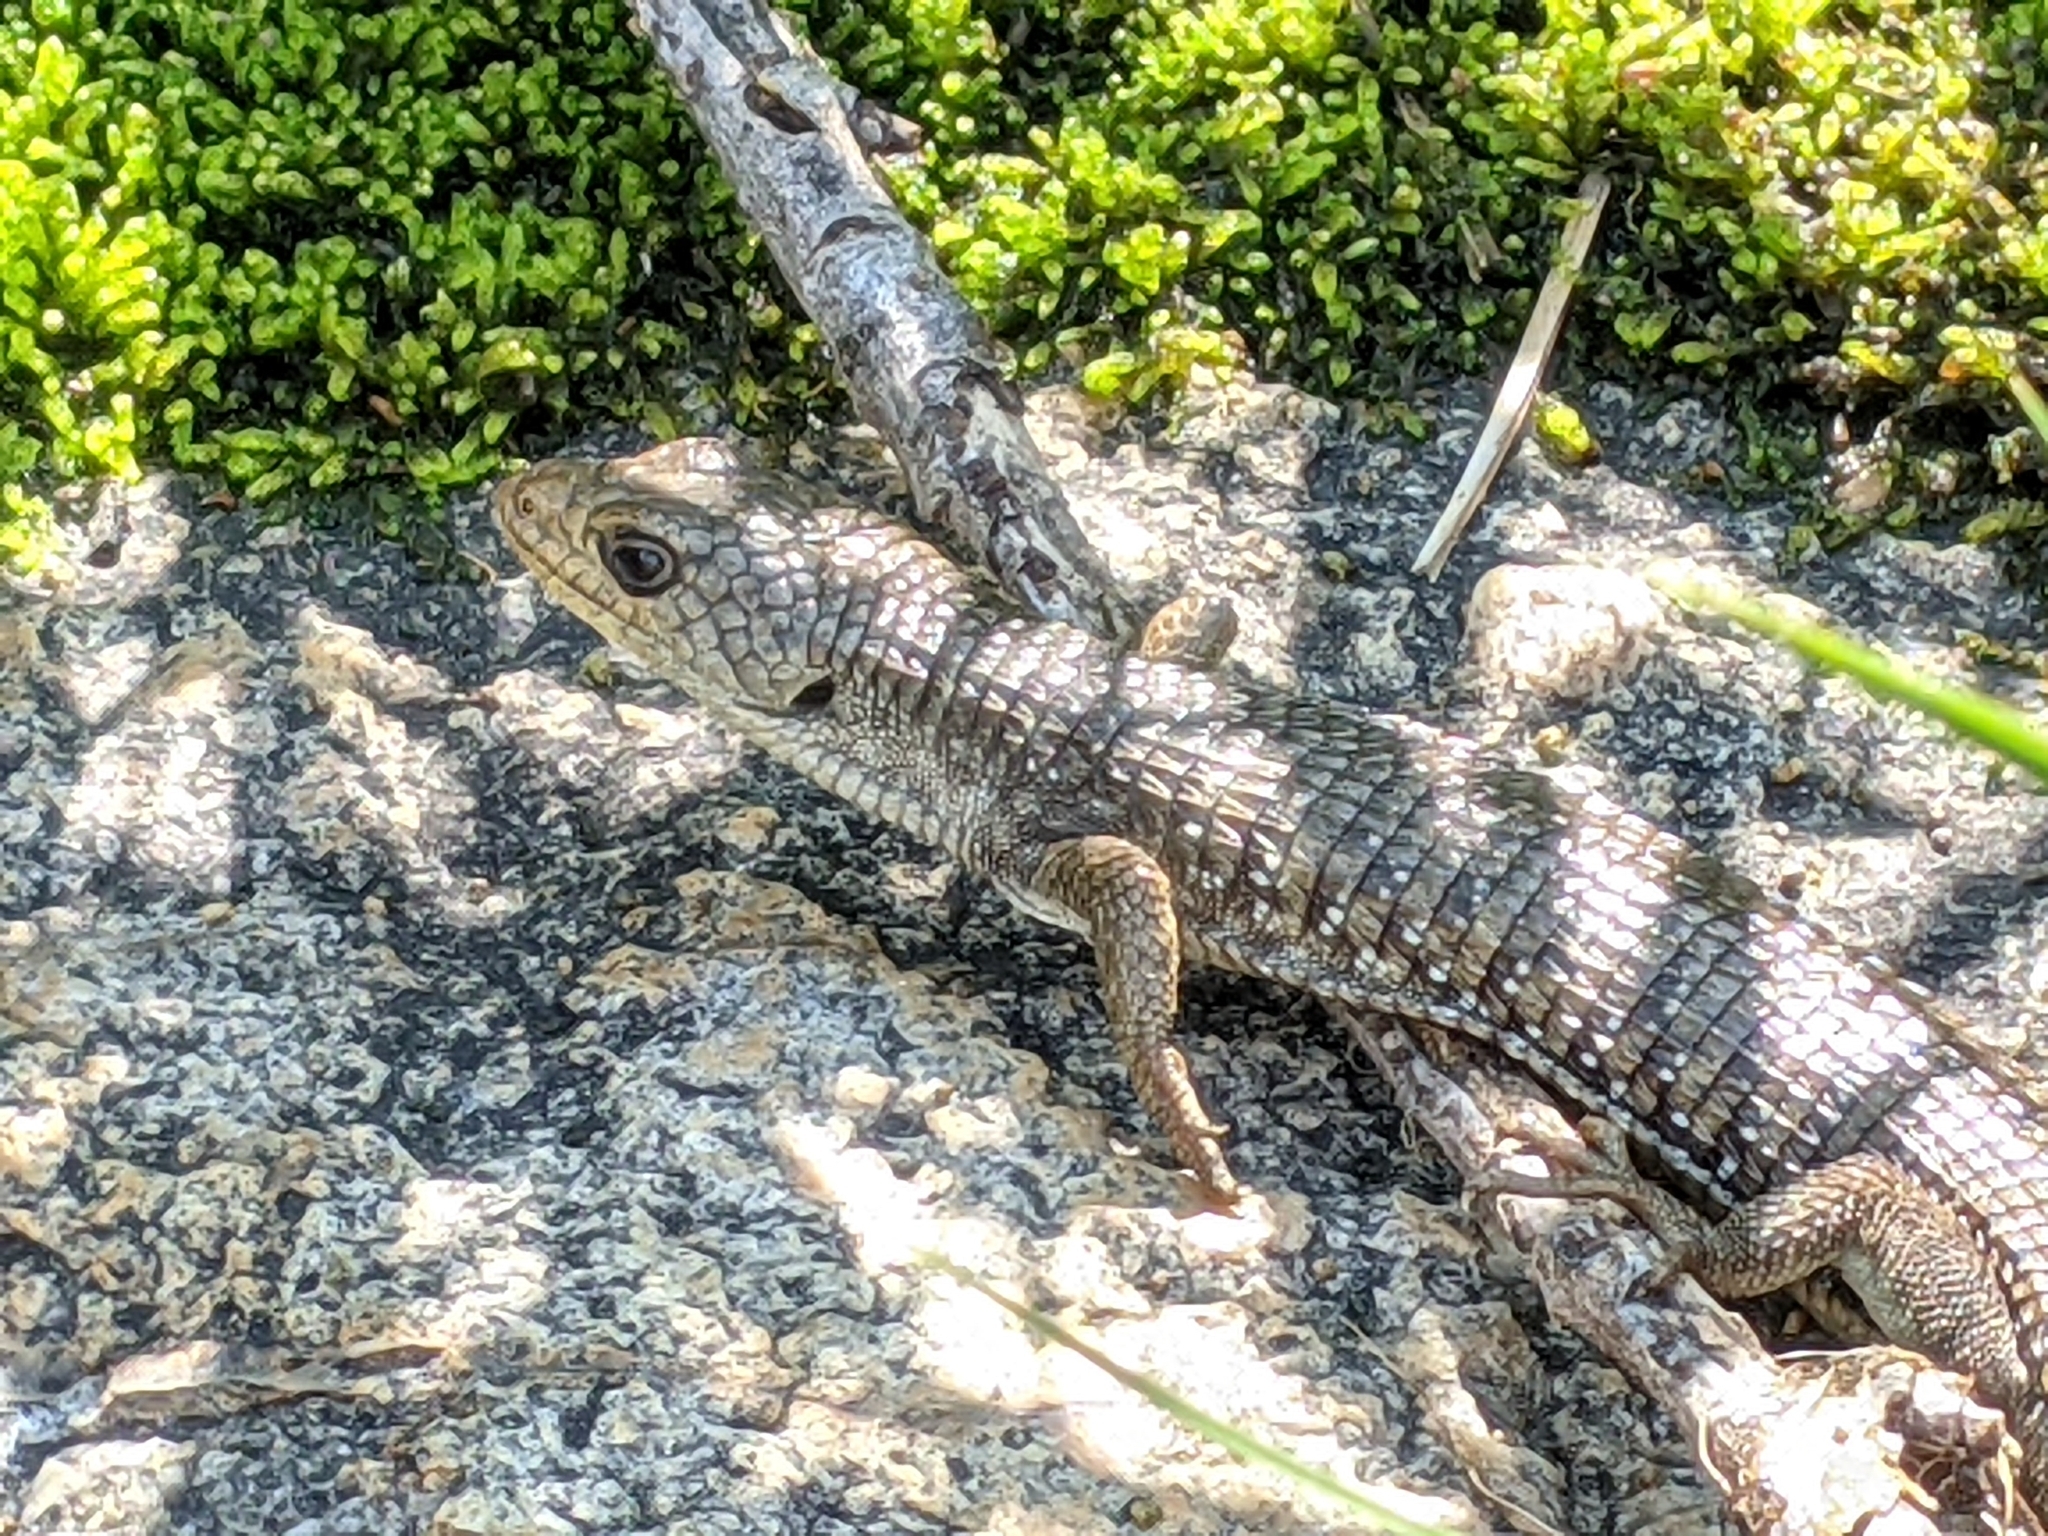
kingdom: Animalia
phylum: Chordata
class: Squamata
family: Anguidae
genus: Elgaria
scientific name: Elgaria coerulea
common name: Northern alligator lizard
